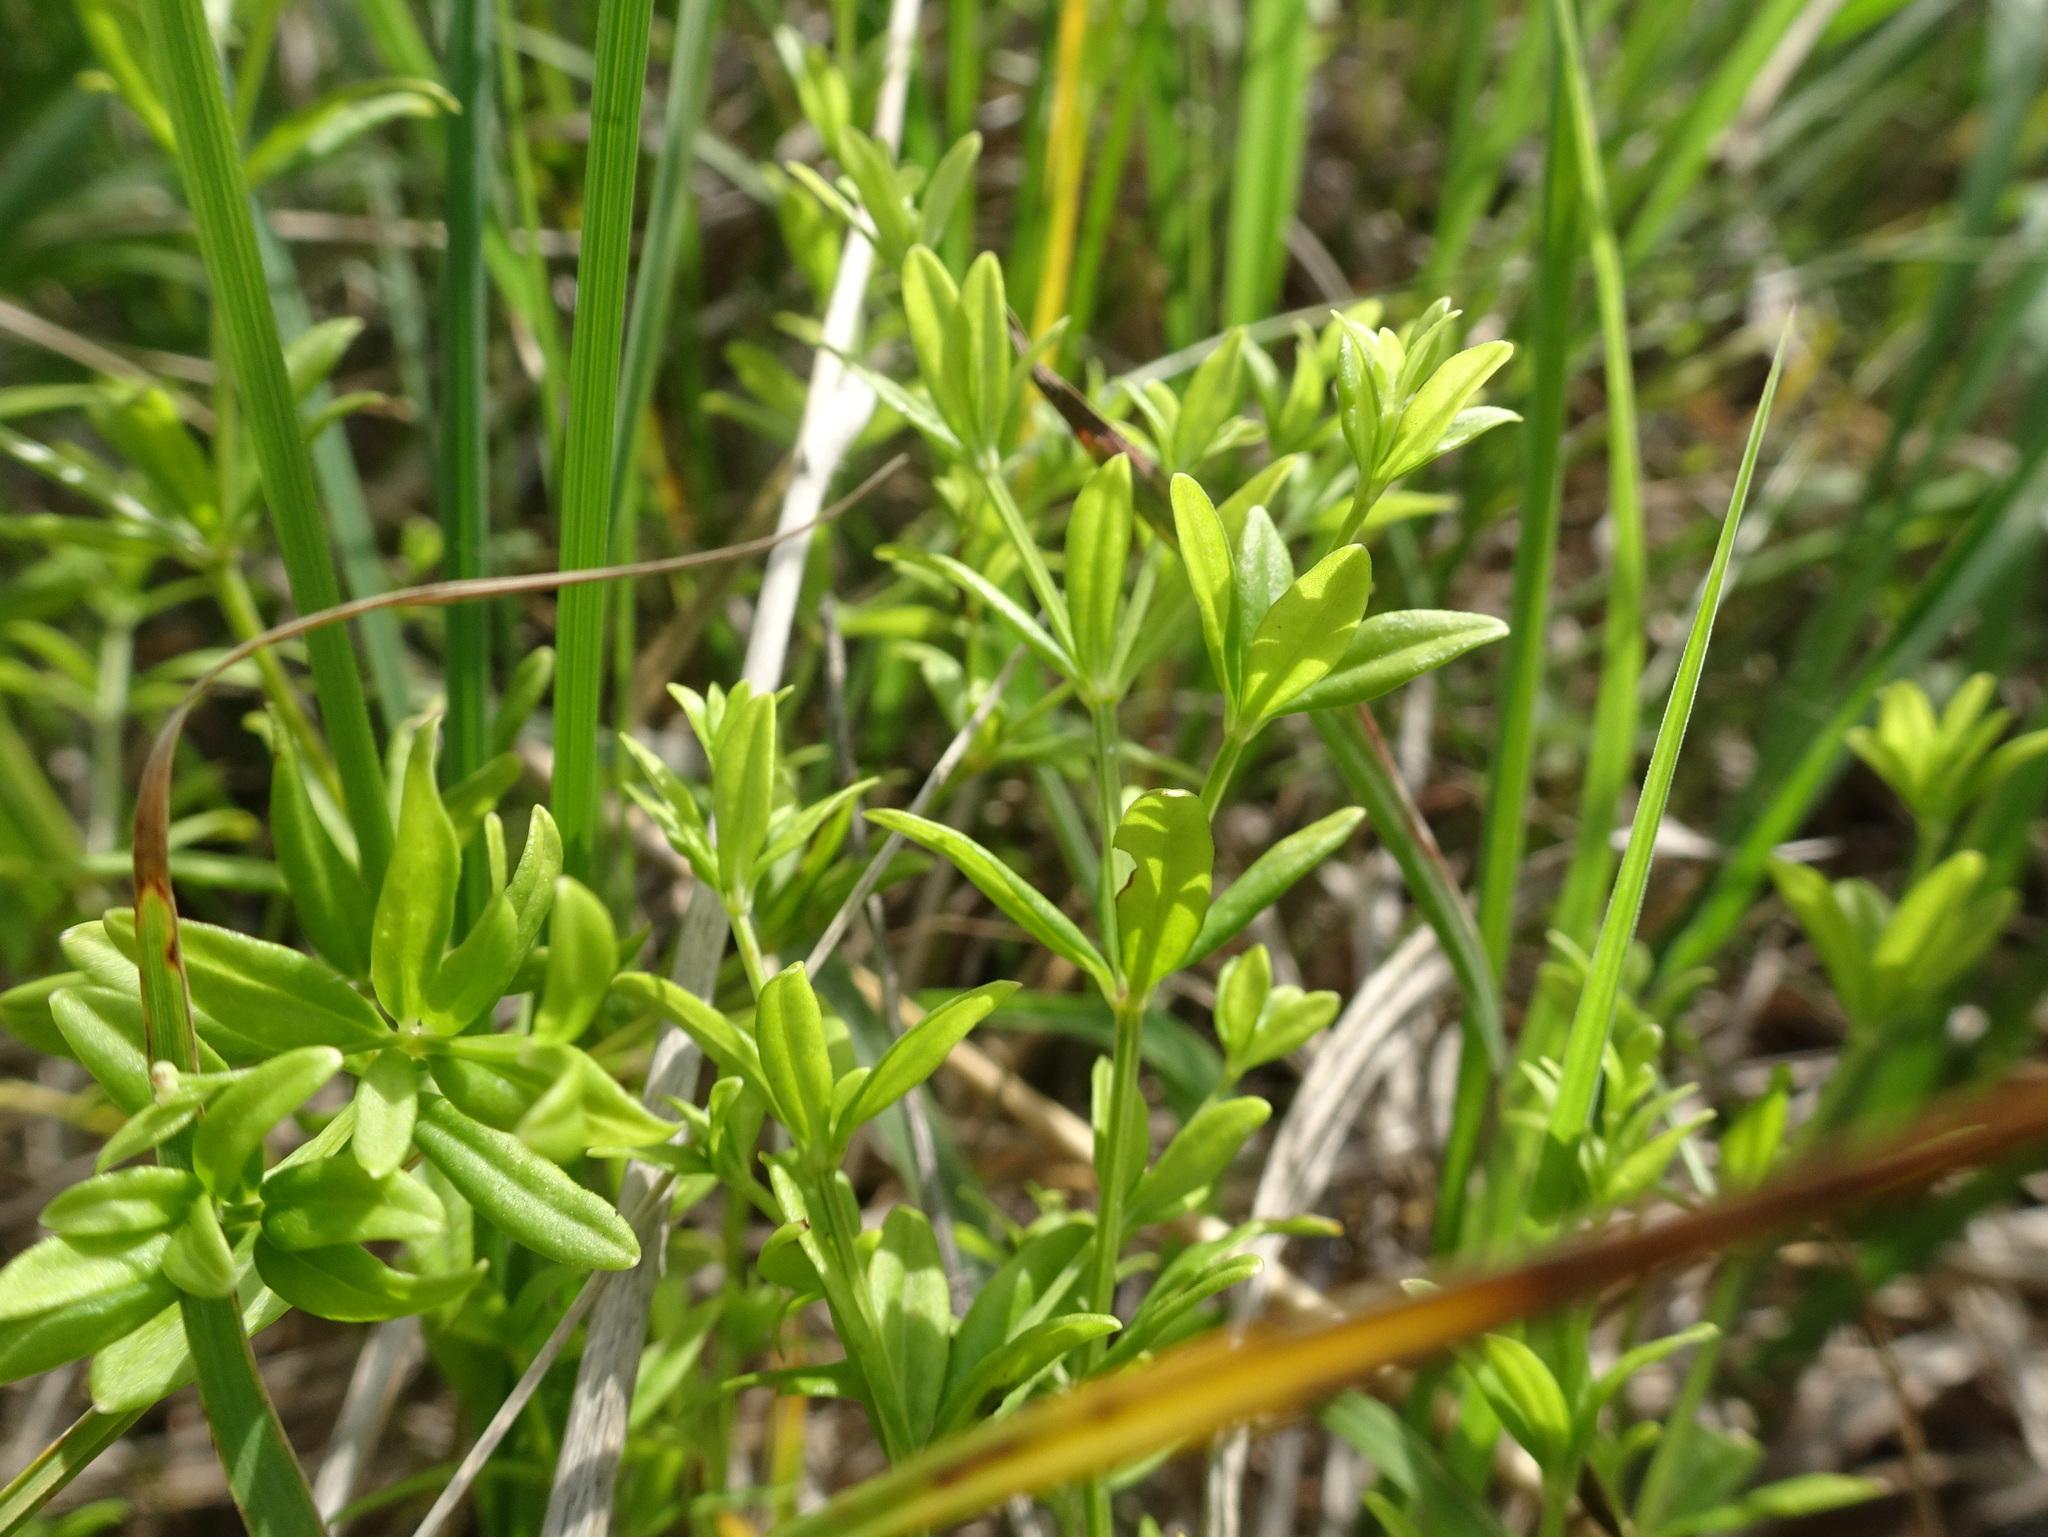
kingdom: Plantae
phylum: Tracheophyta
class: Magnoliopsida
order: Gentianales
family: Rubiaceae
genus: Galium
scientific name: Galium obtusum
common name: Blunt-leaved bedstraw
